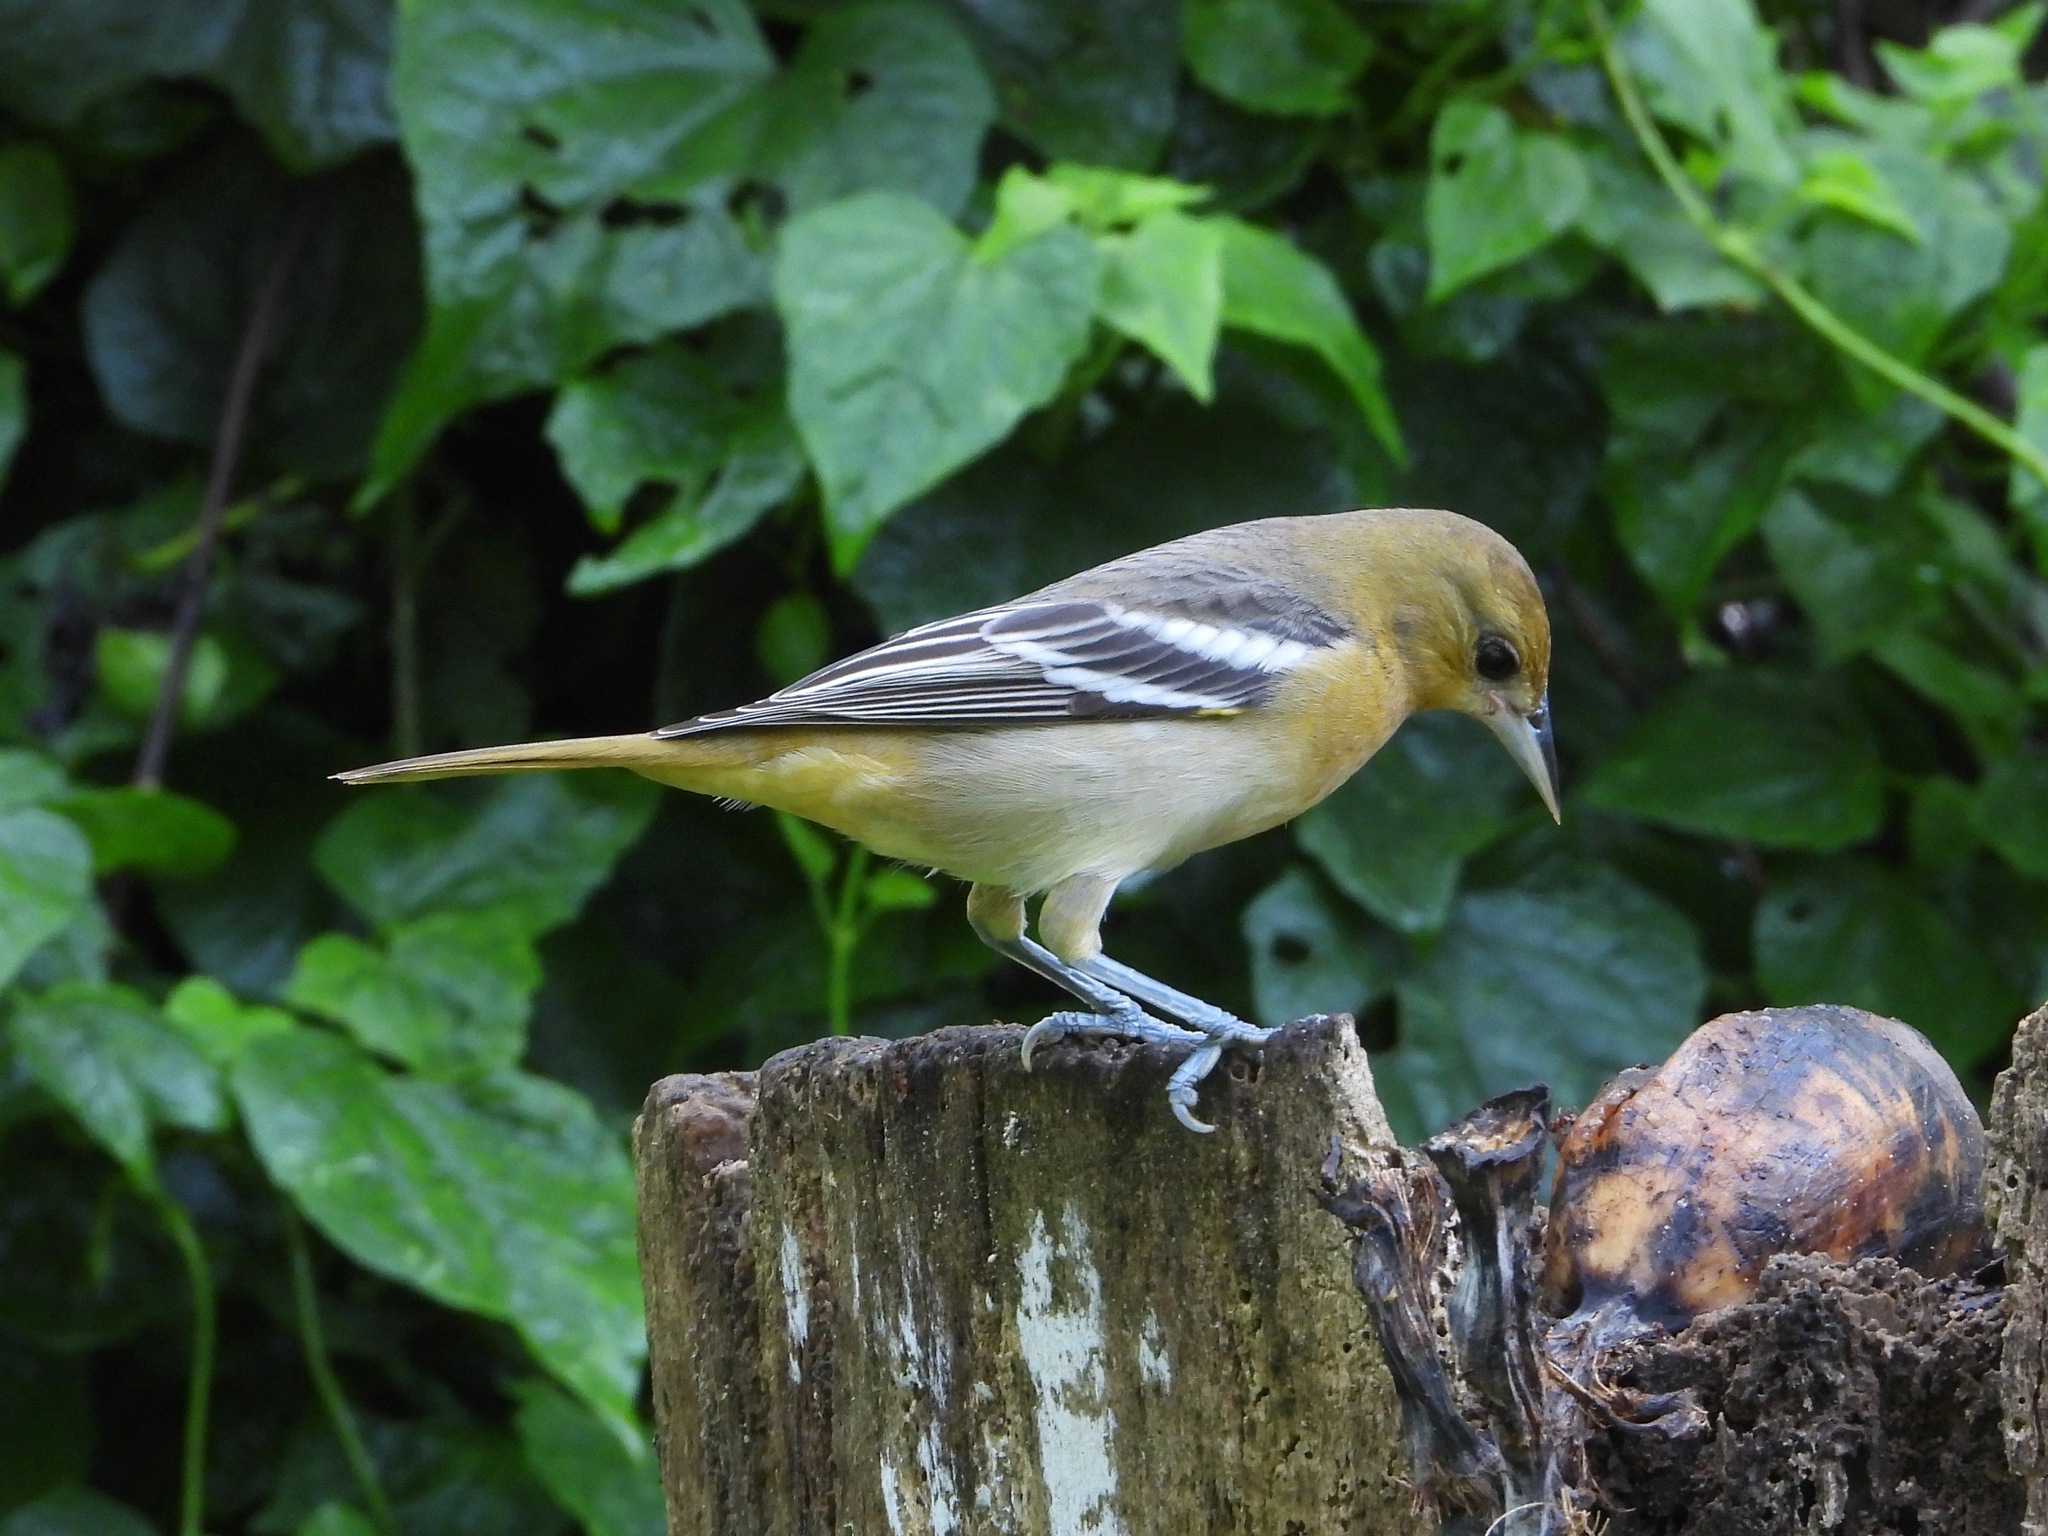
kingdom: Animalia
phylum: Chordata
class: Aves
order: Passeriformes
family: Icteridae
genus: Icterus
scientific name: Icterus galbula
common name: Baltimore oriole
